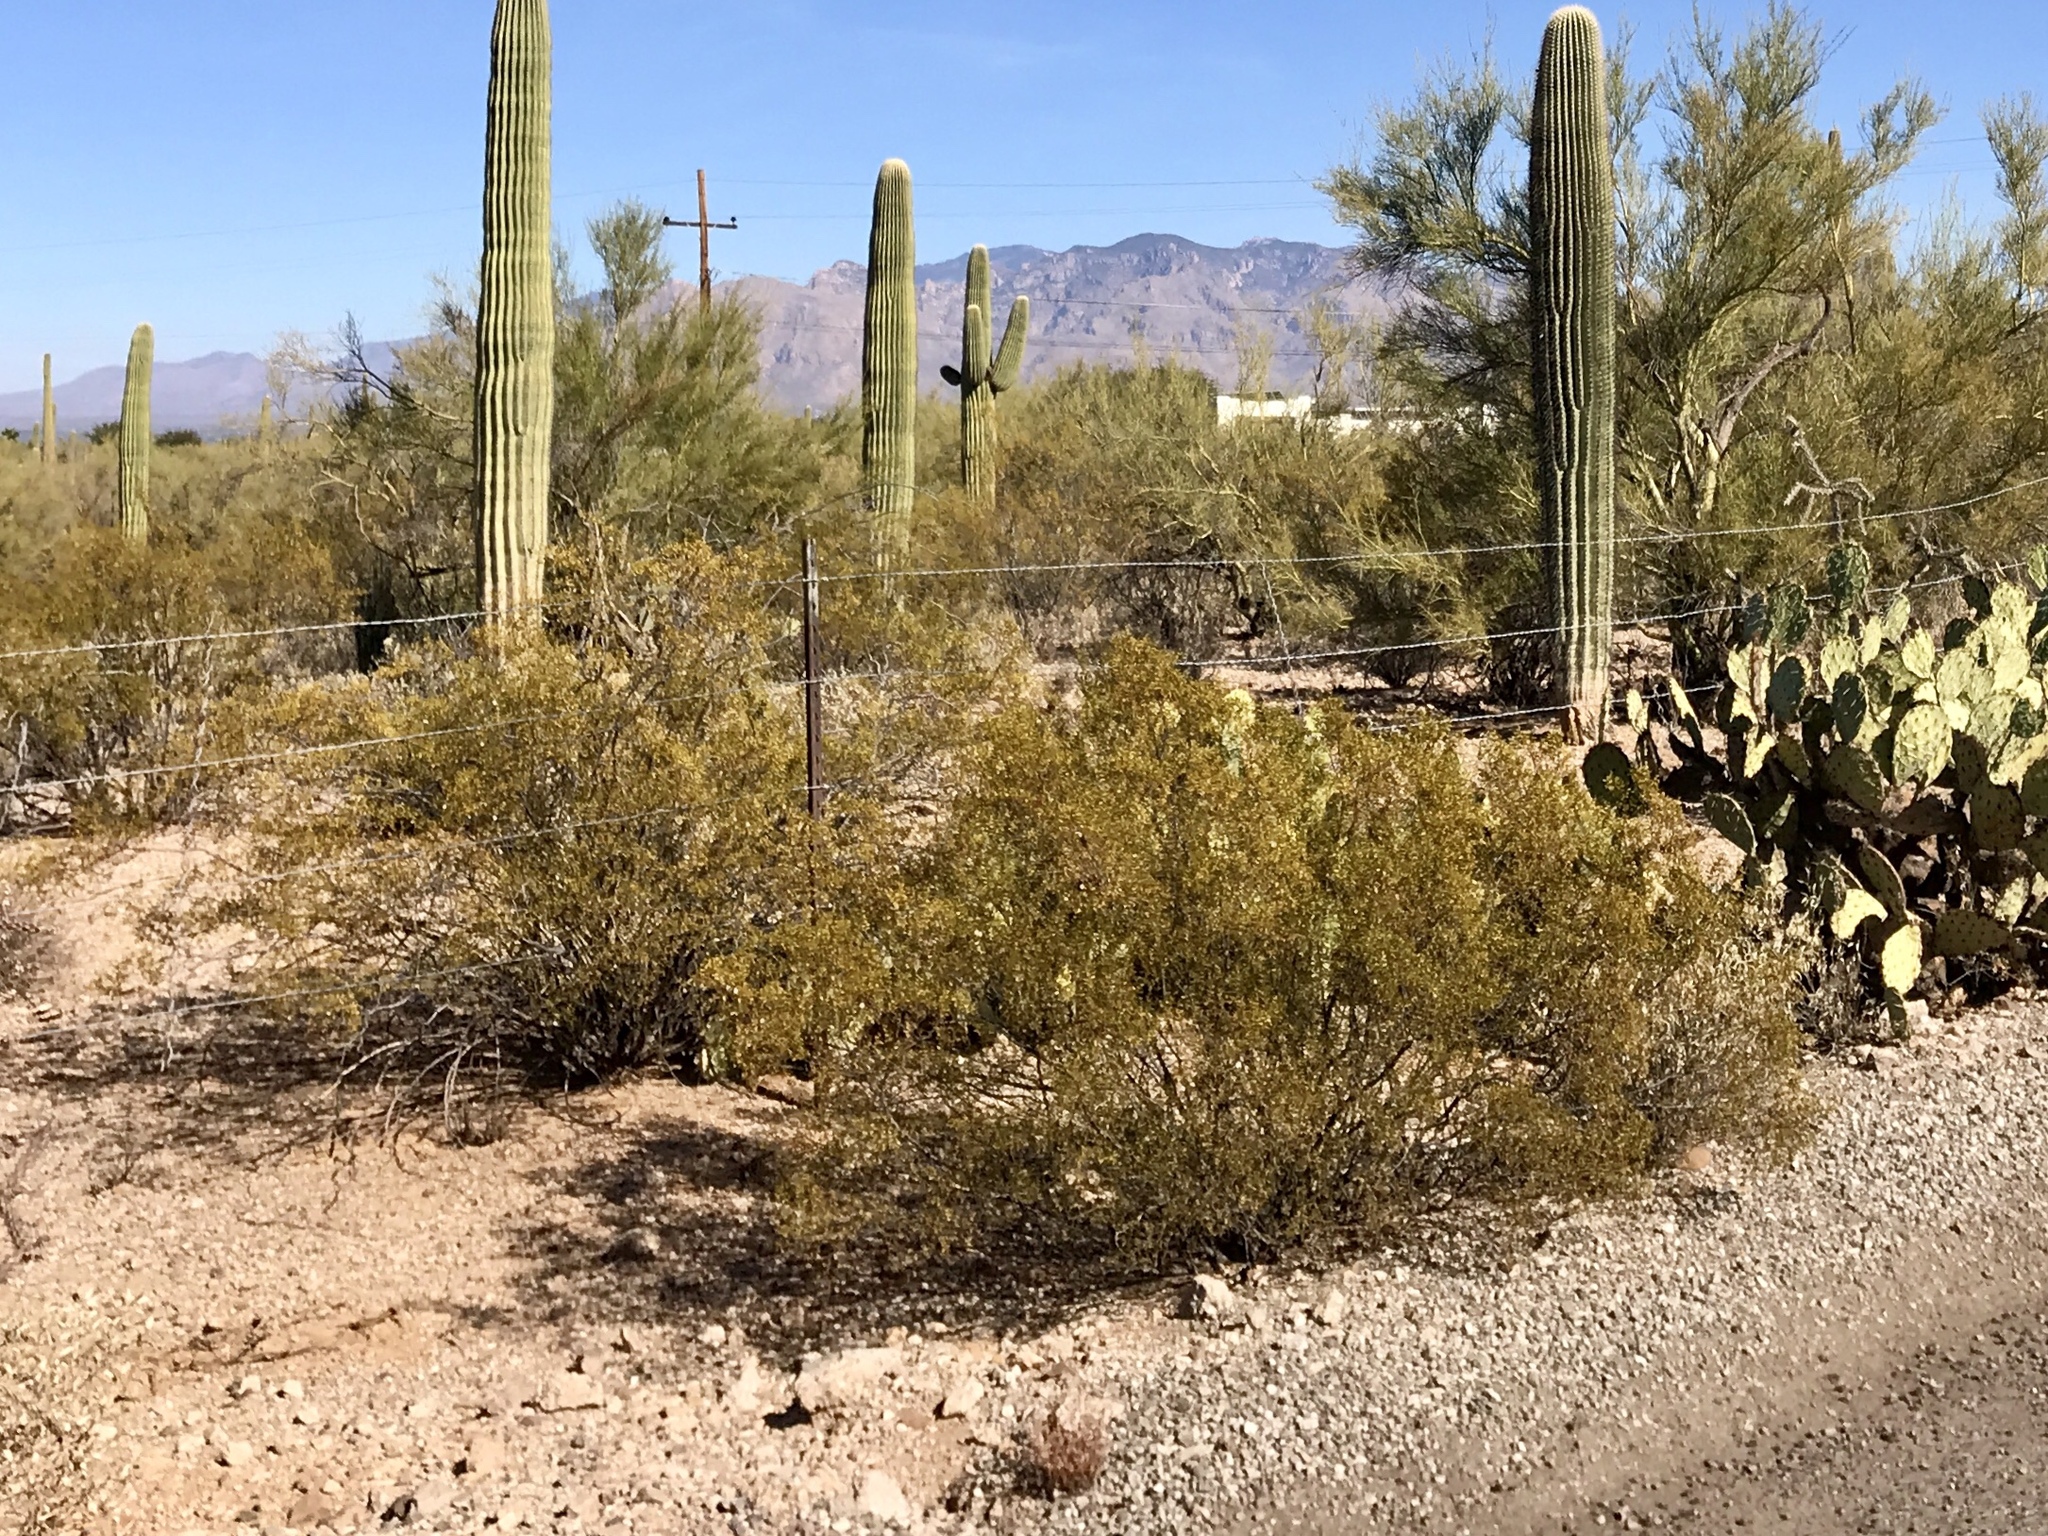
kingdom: Plantae
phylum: Tracheophyta
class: Magnoliopsida
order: Zygophyllales
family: Zygophyllaceae
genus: Larrea
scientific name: Larrea tridentata
